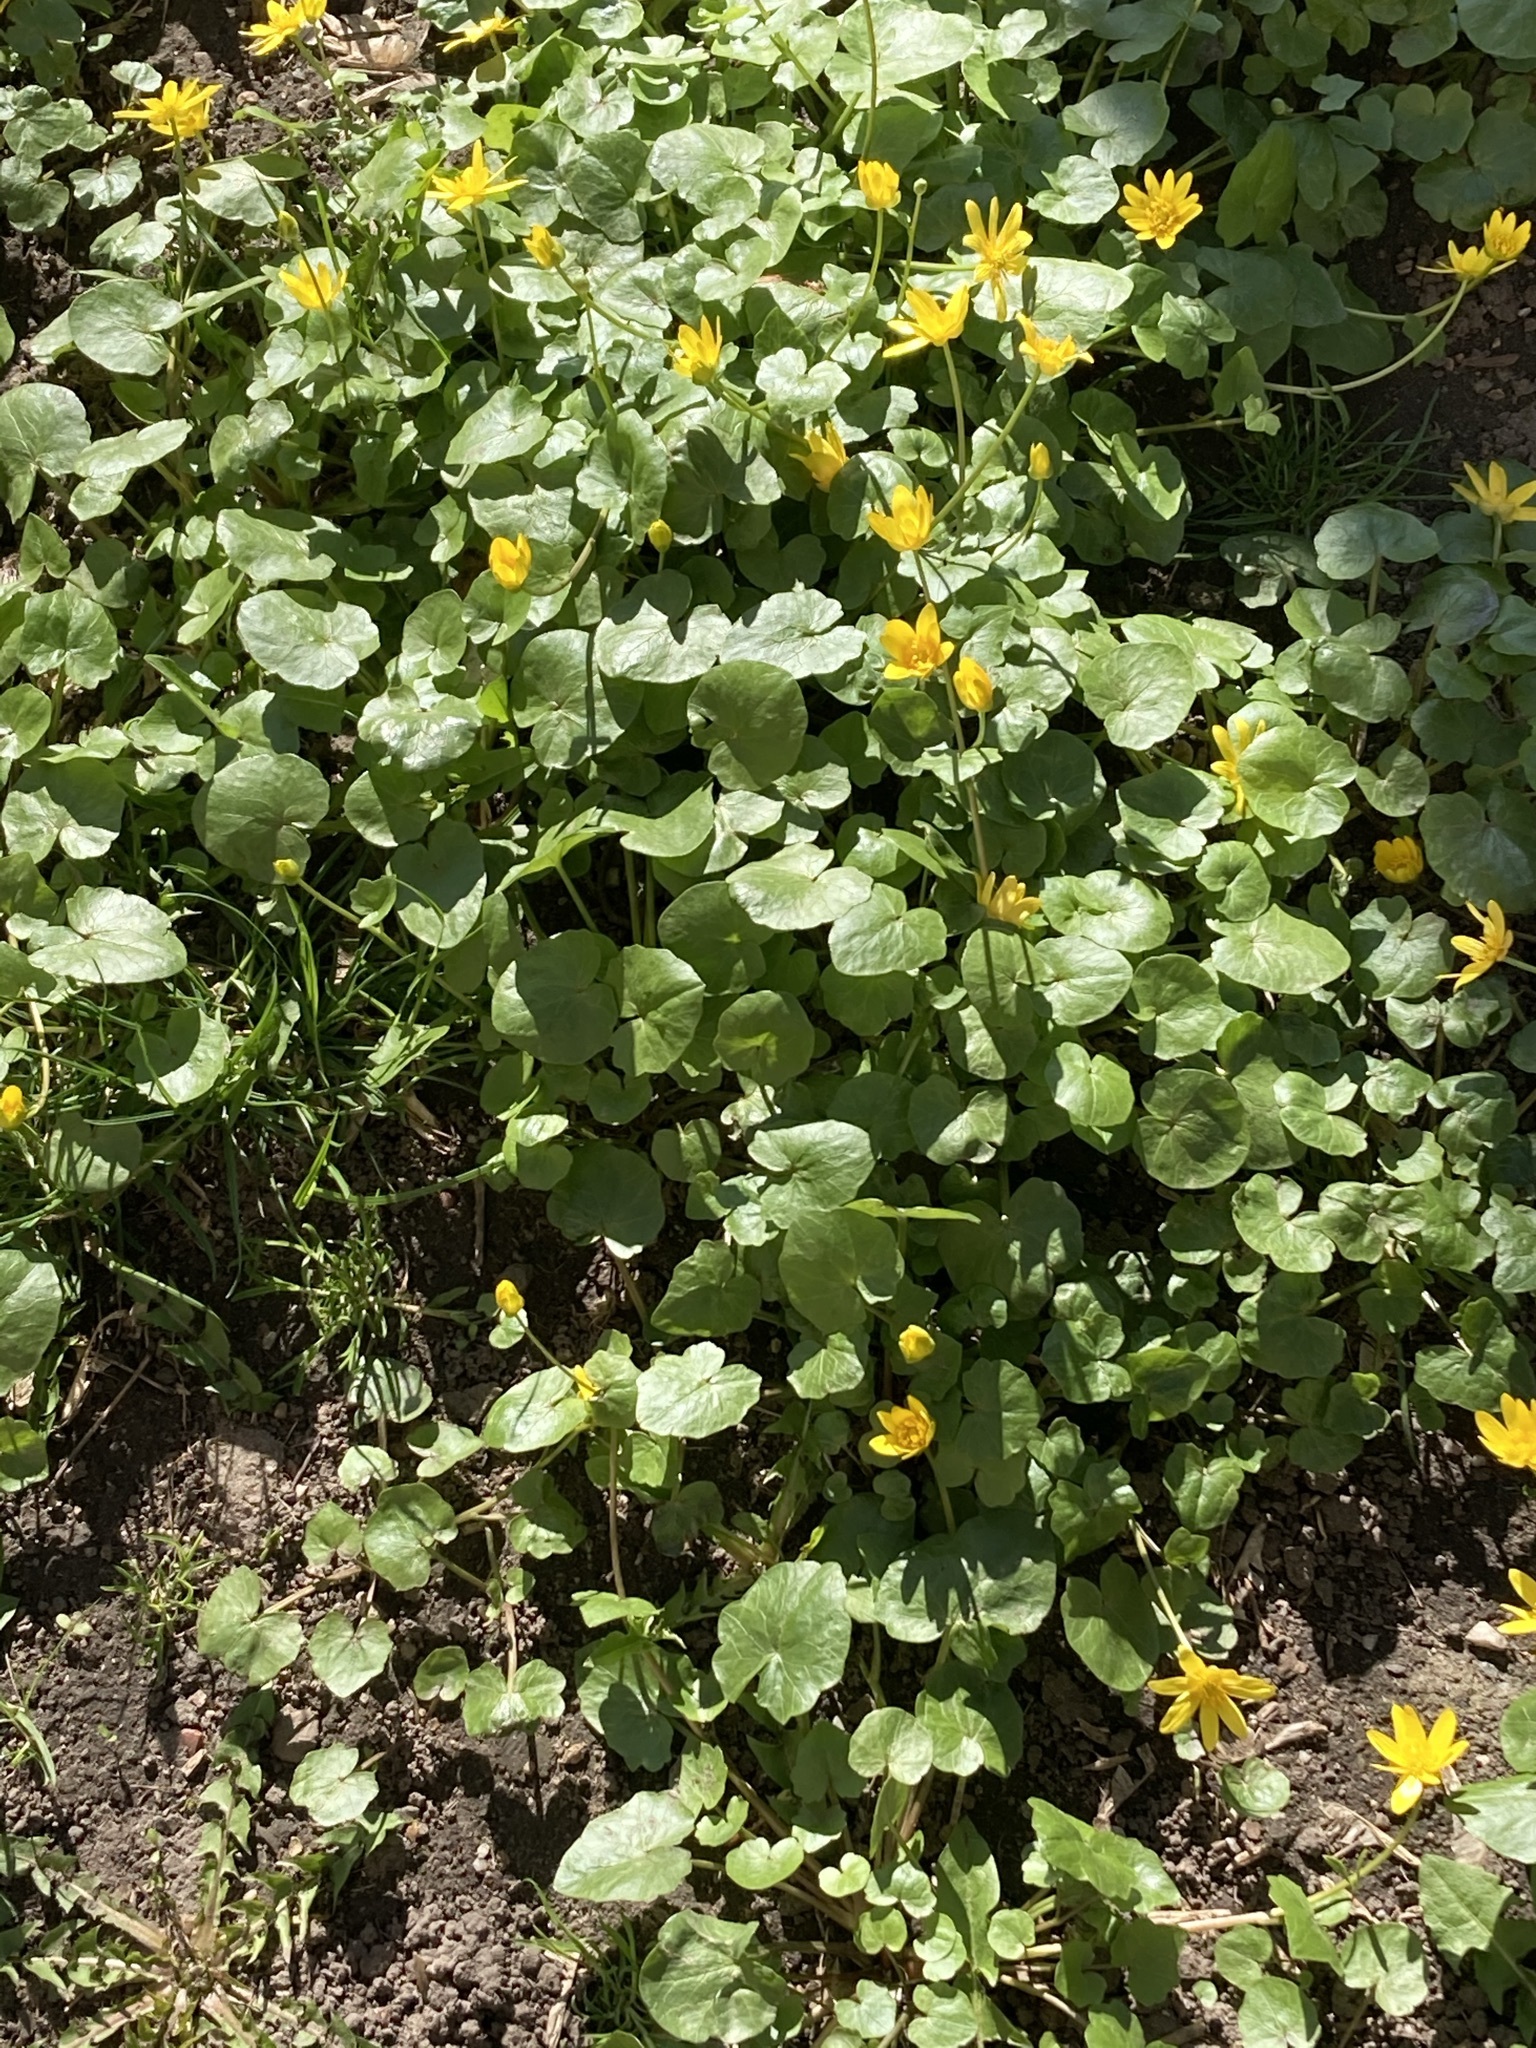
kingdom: Plantae
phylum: Tracheophyta
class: Magnoliopsida
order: Ranunculales
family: Ranunculaceae
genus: Ficaria
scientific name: Ficaria verna
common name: Lesser celandine
